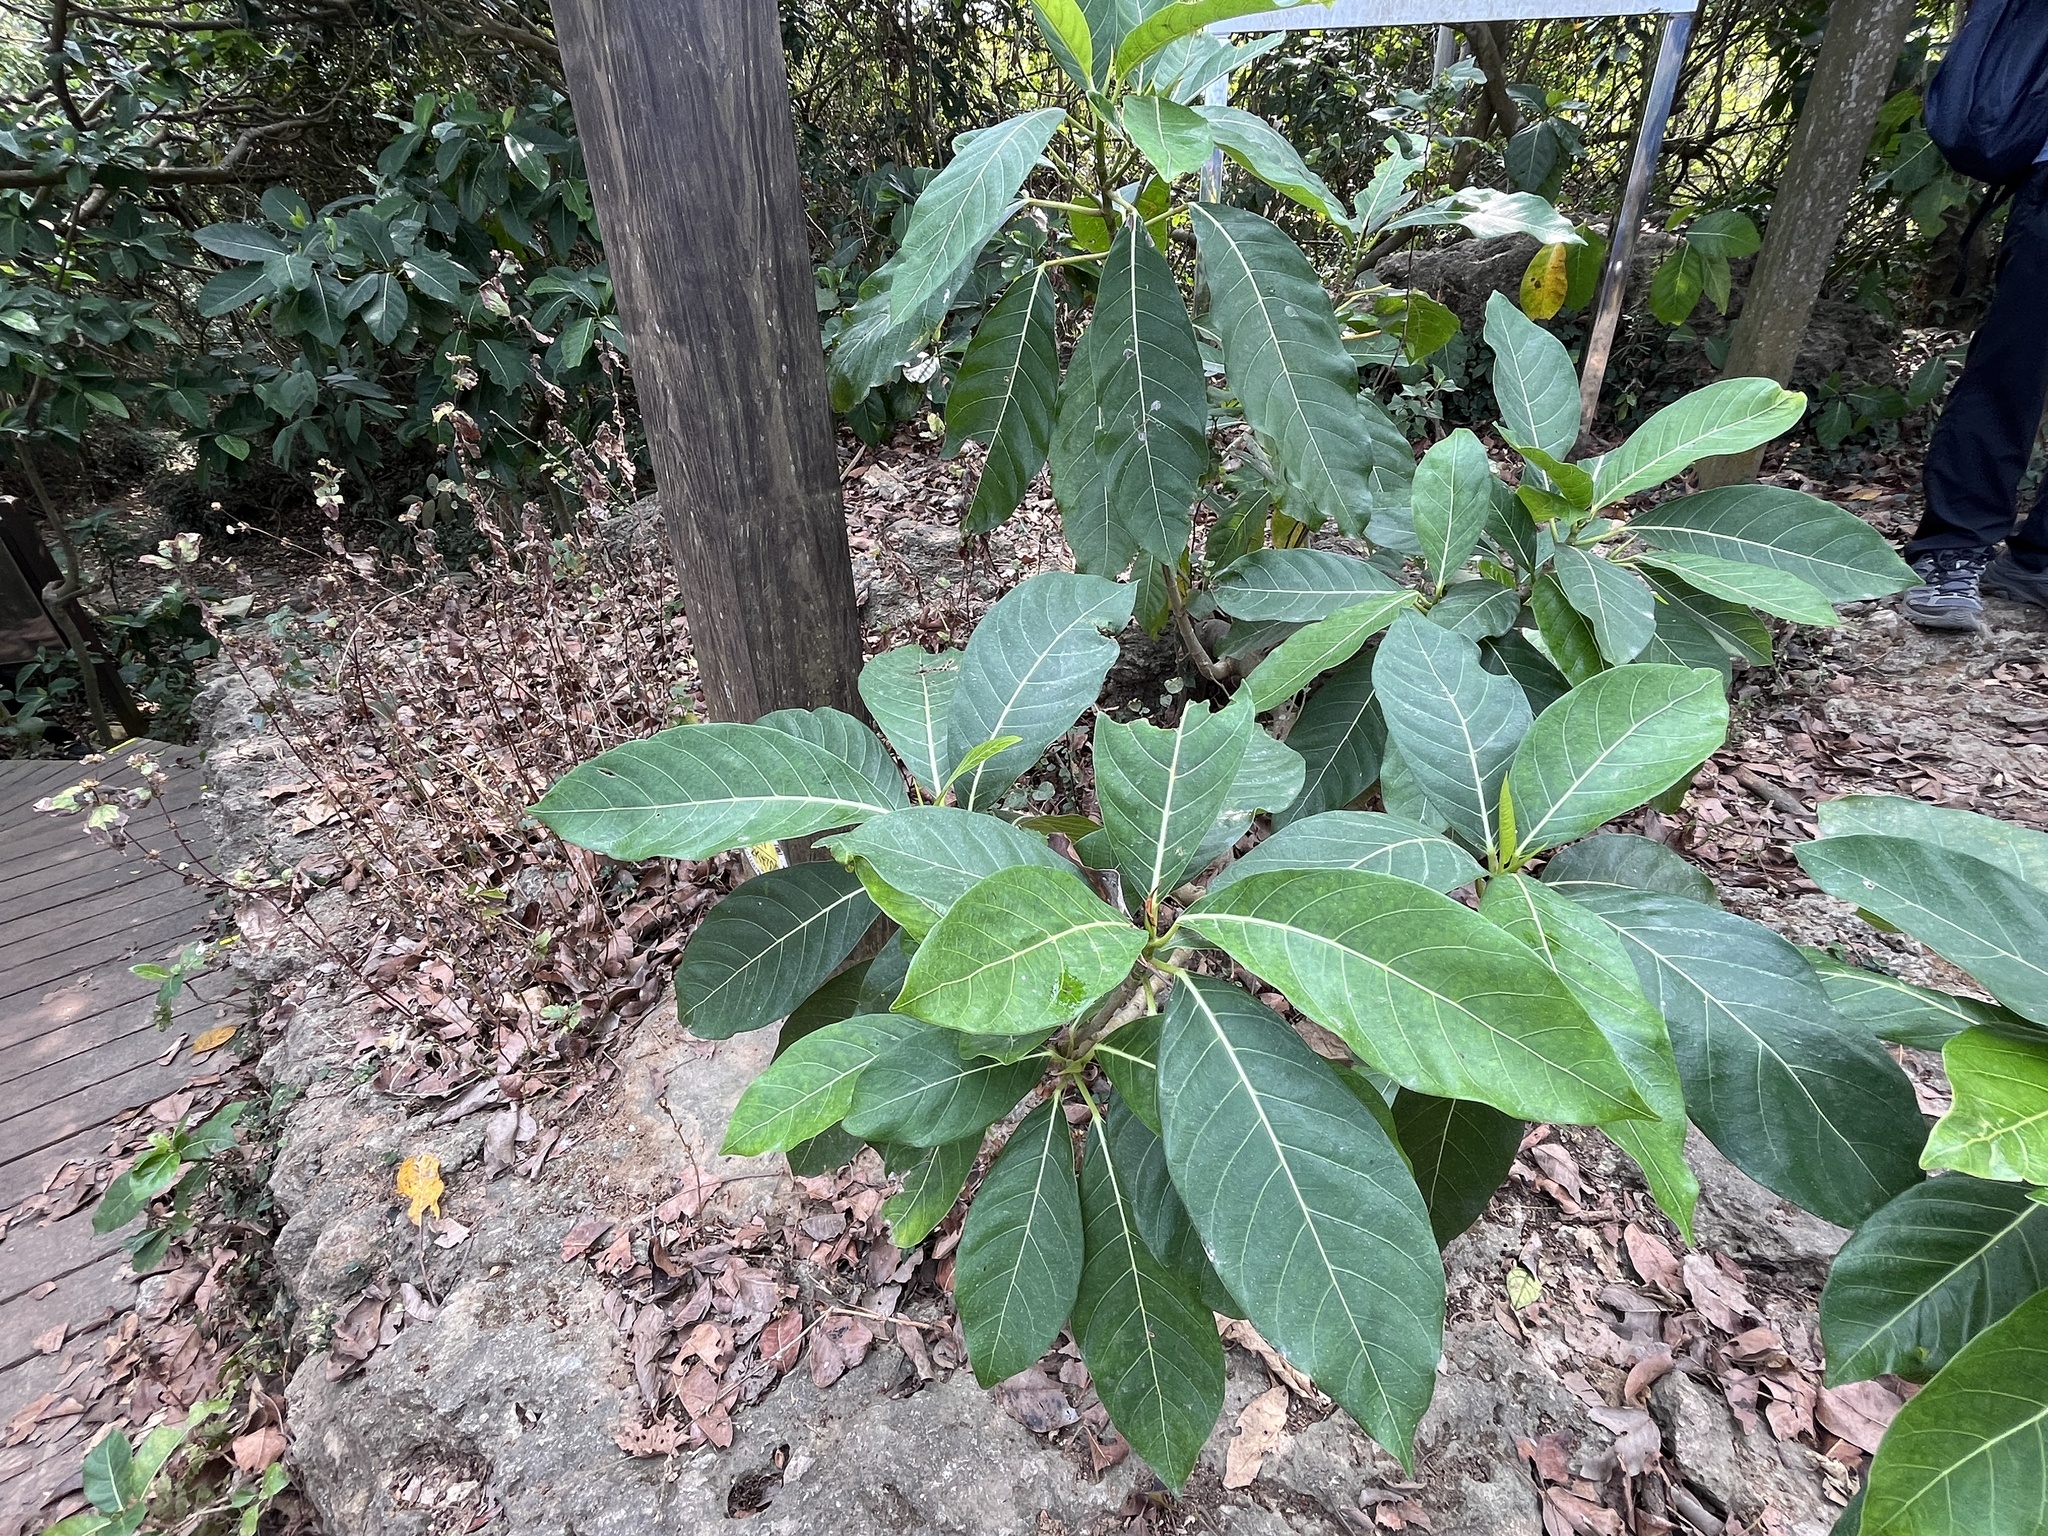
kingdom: Plantae
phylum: Tracheophyta
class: Magnoliopsida
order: Rosales
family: Moraceae
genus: Ficus
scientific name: Ficus septica
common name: Septic fig
